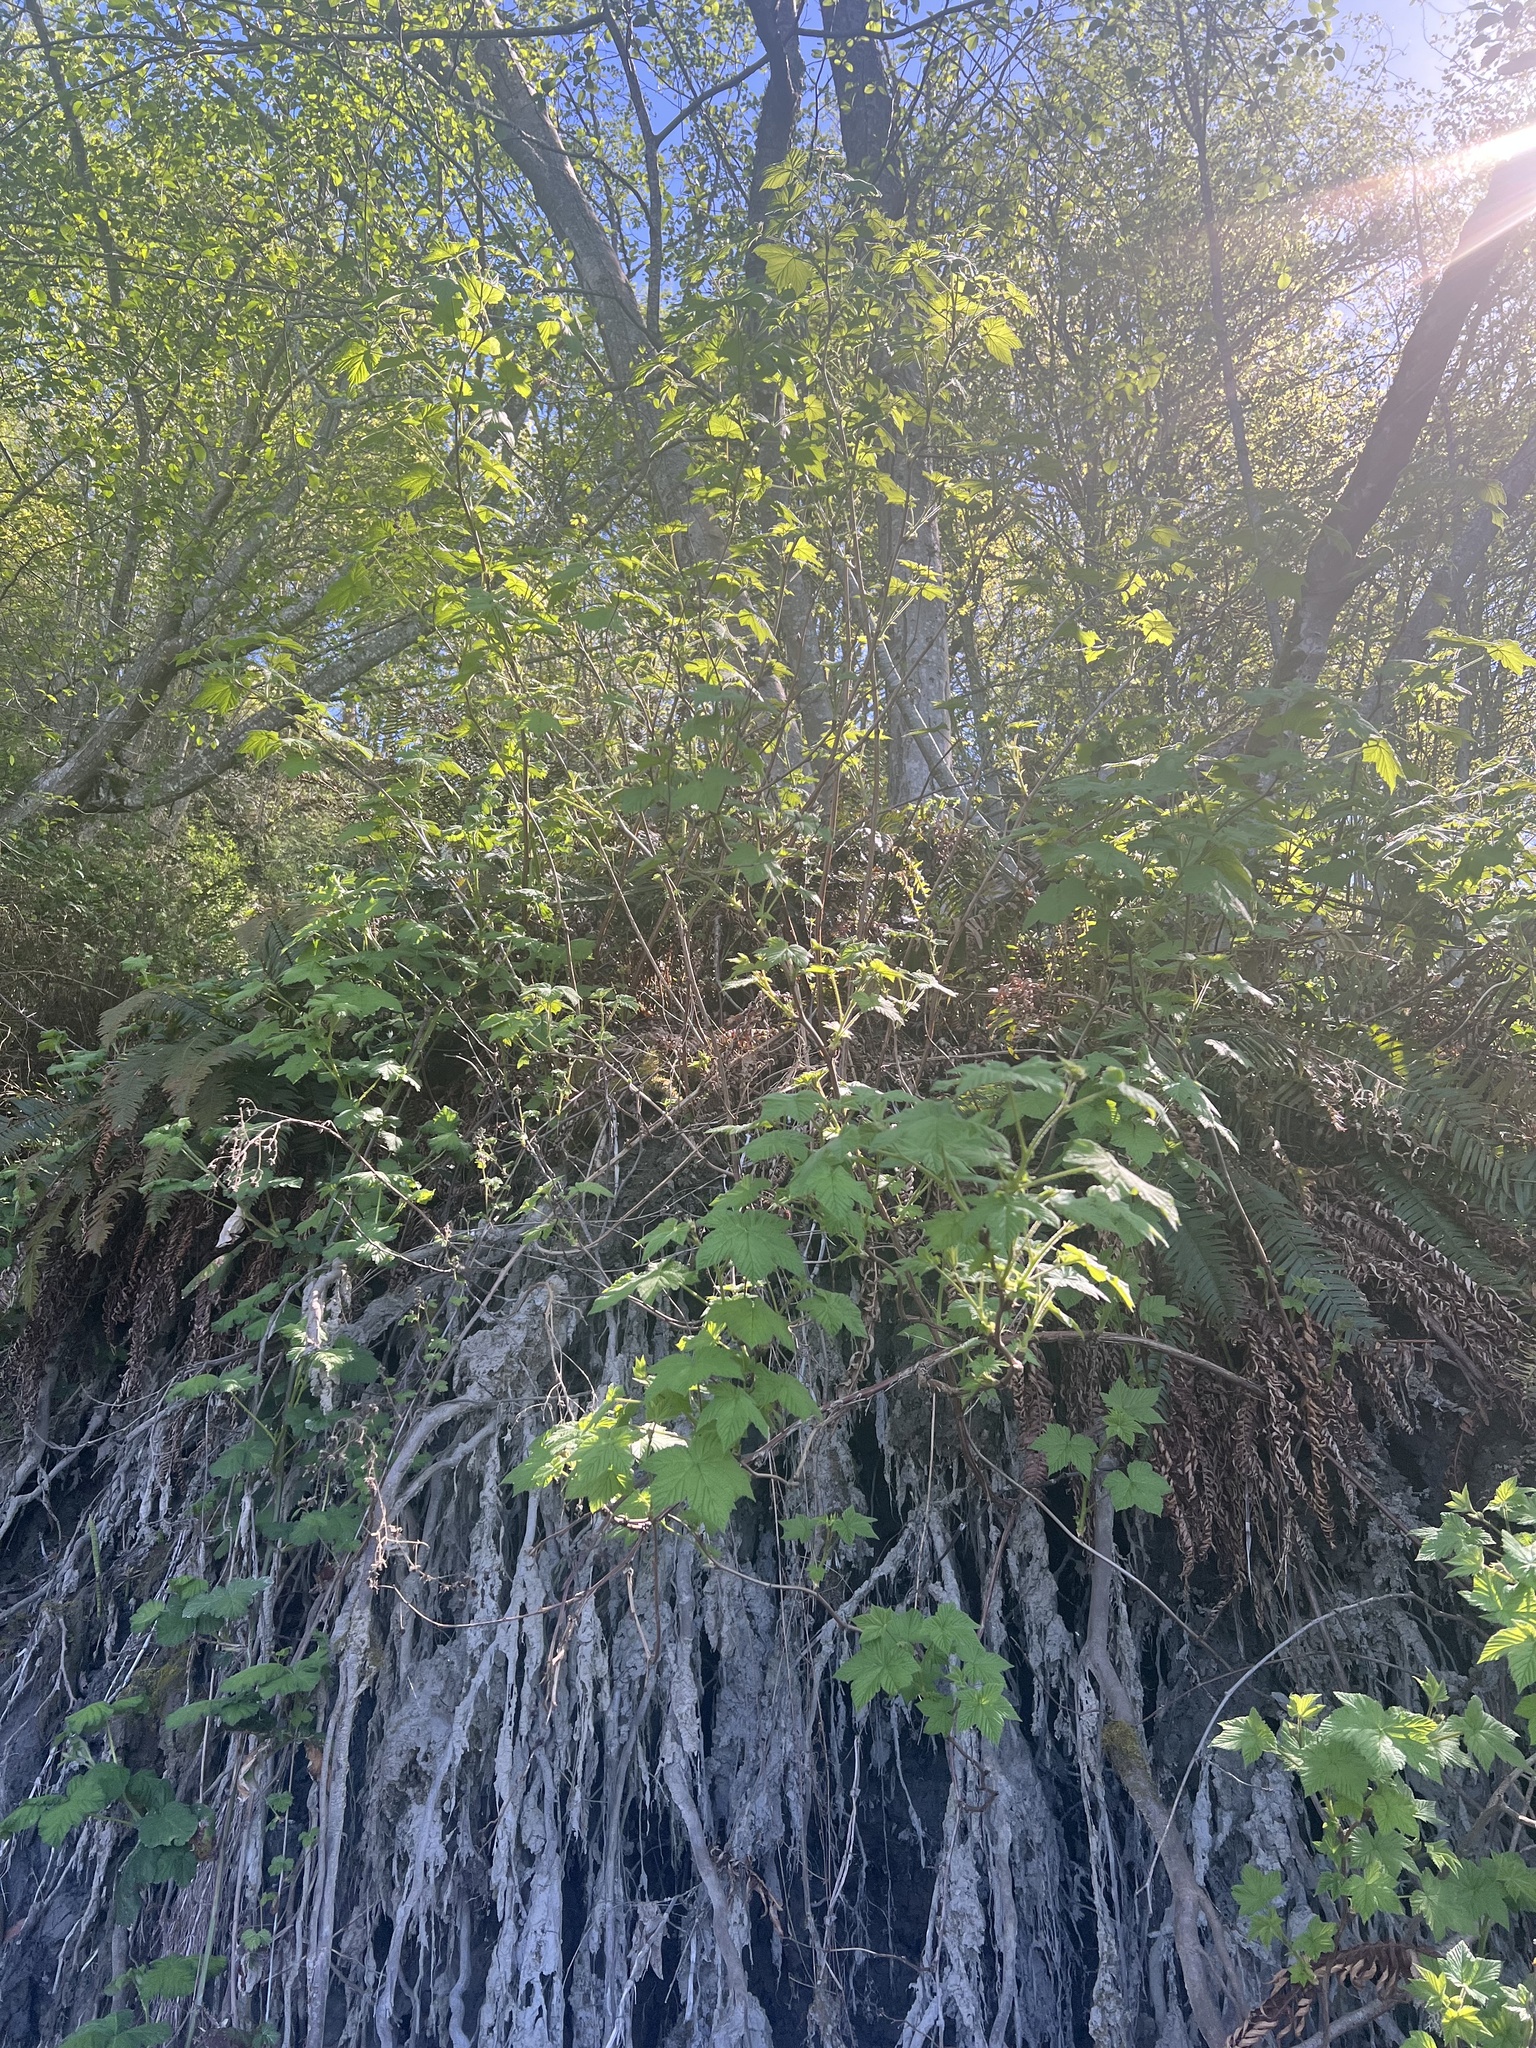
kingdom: Plantae
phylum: Tracheophyta
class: Magnoliopsida
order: Rosales
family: Rosaceae
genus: Rubus
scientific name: Rubus parviflorus
